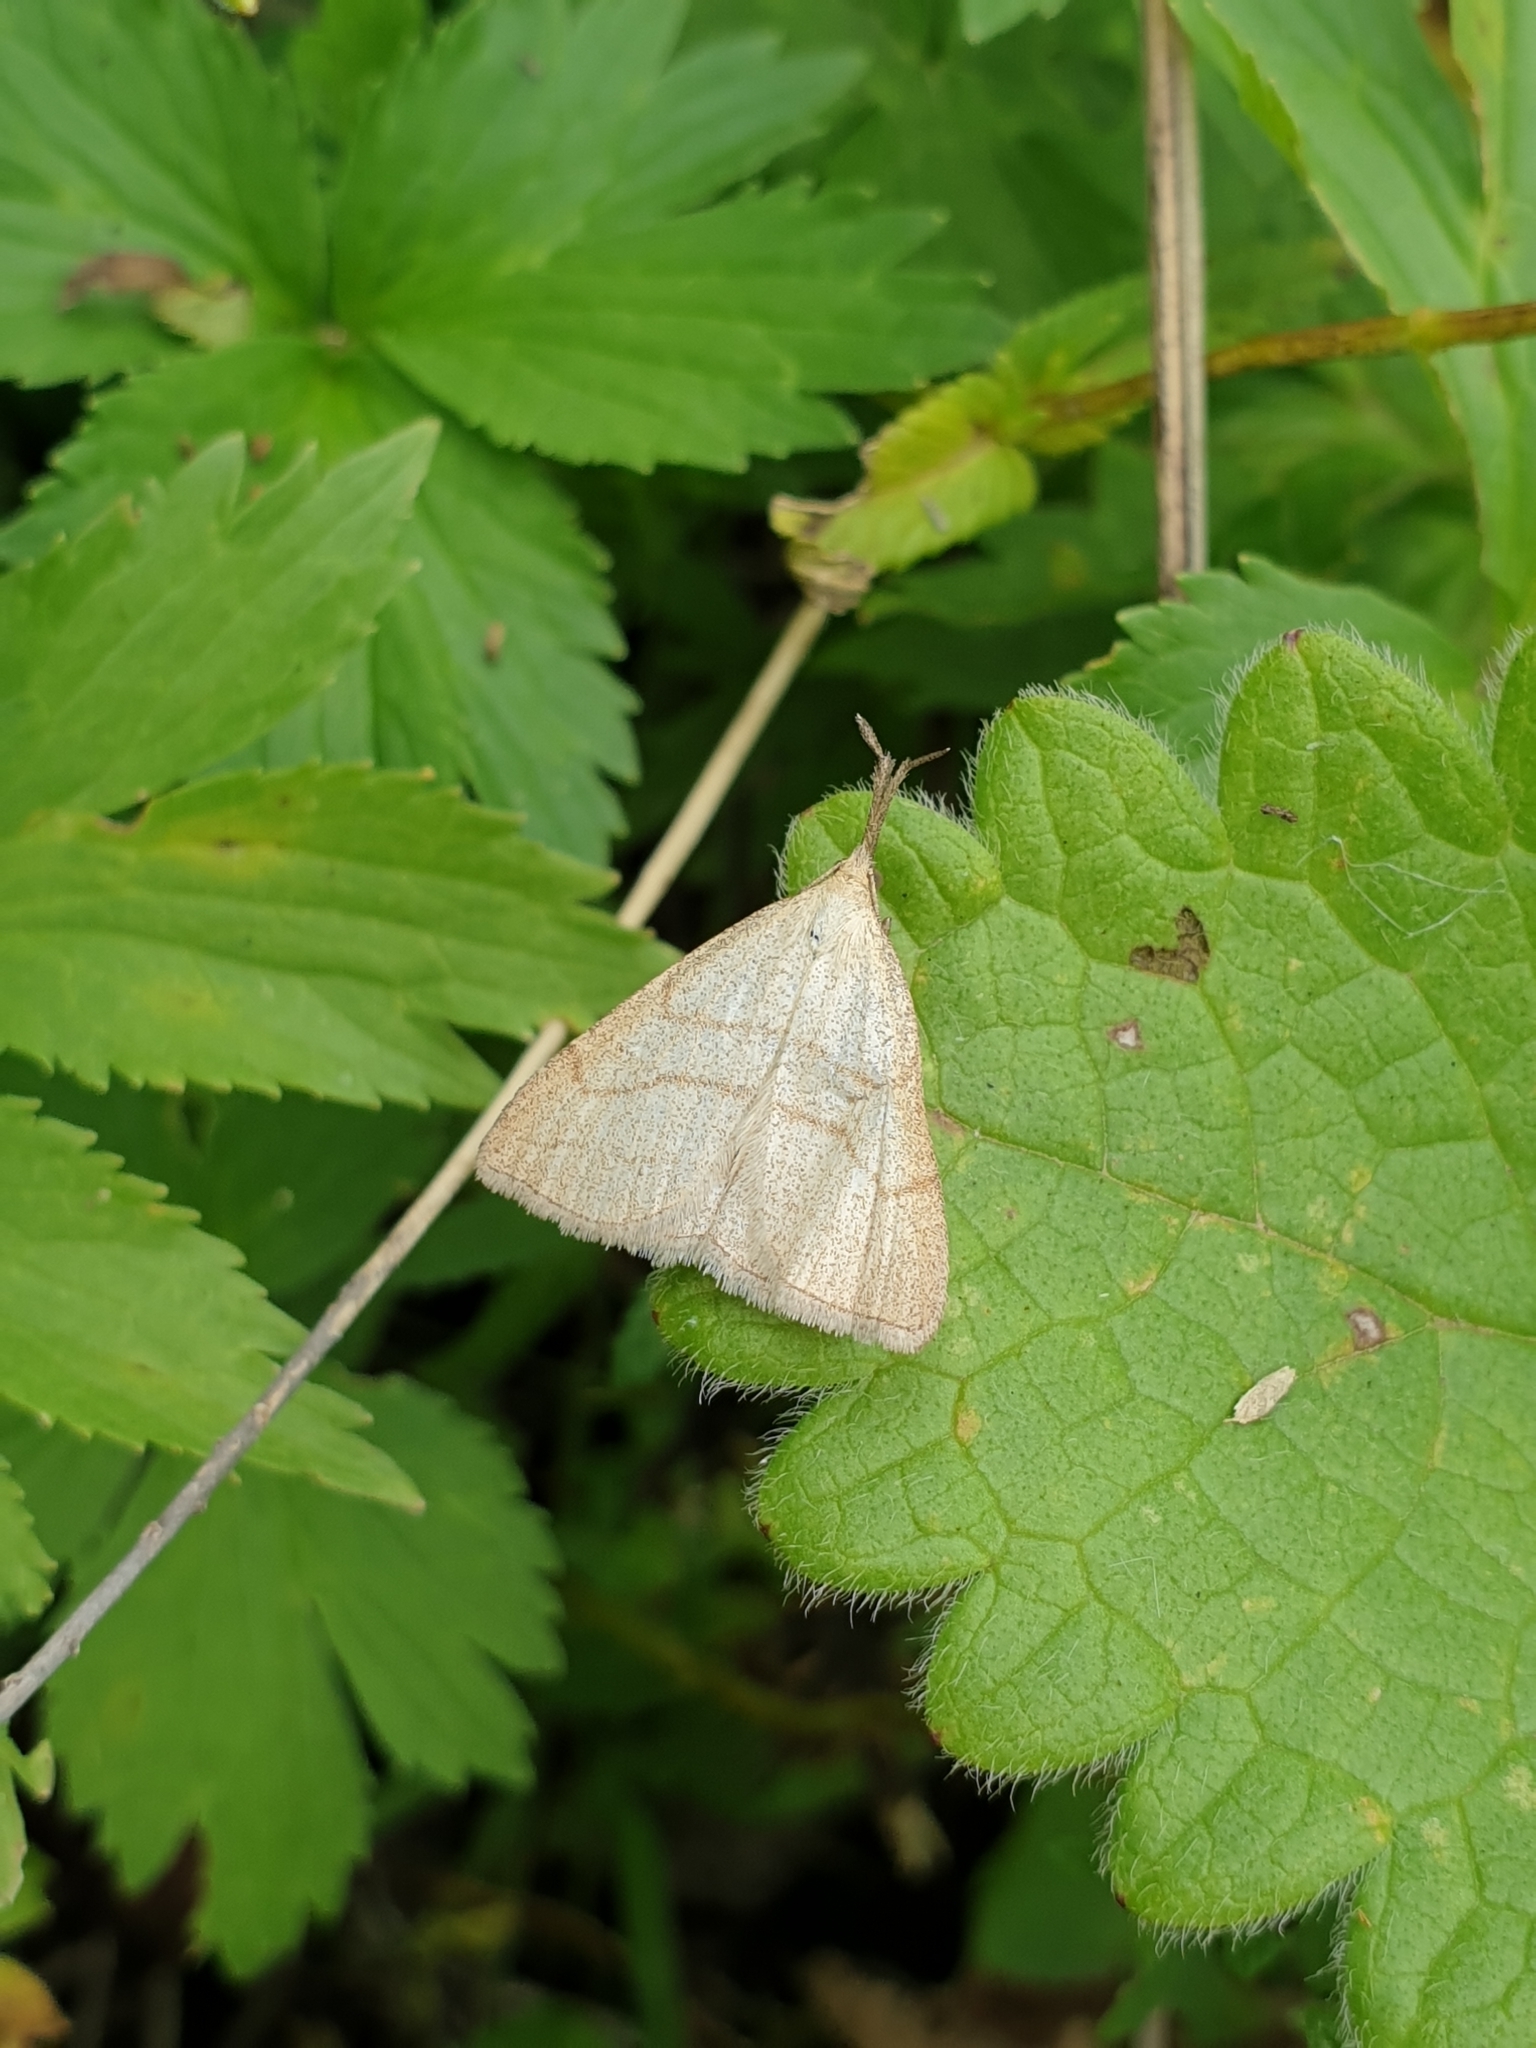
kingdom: Animalia
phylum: Arthropoda
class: Insecta
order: Lepidoptera
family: Erebidae
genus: Polypogon
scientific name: Polypogon tentacularia
